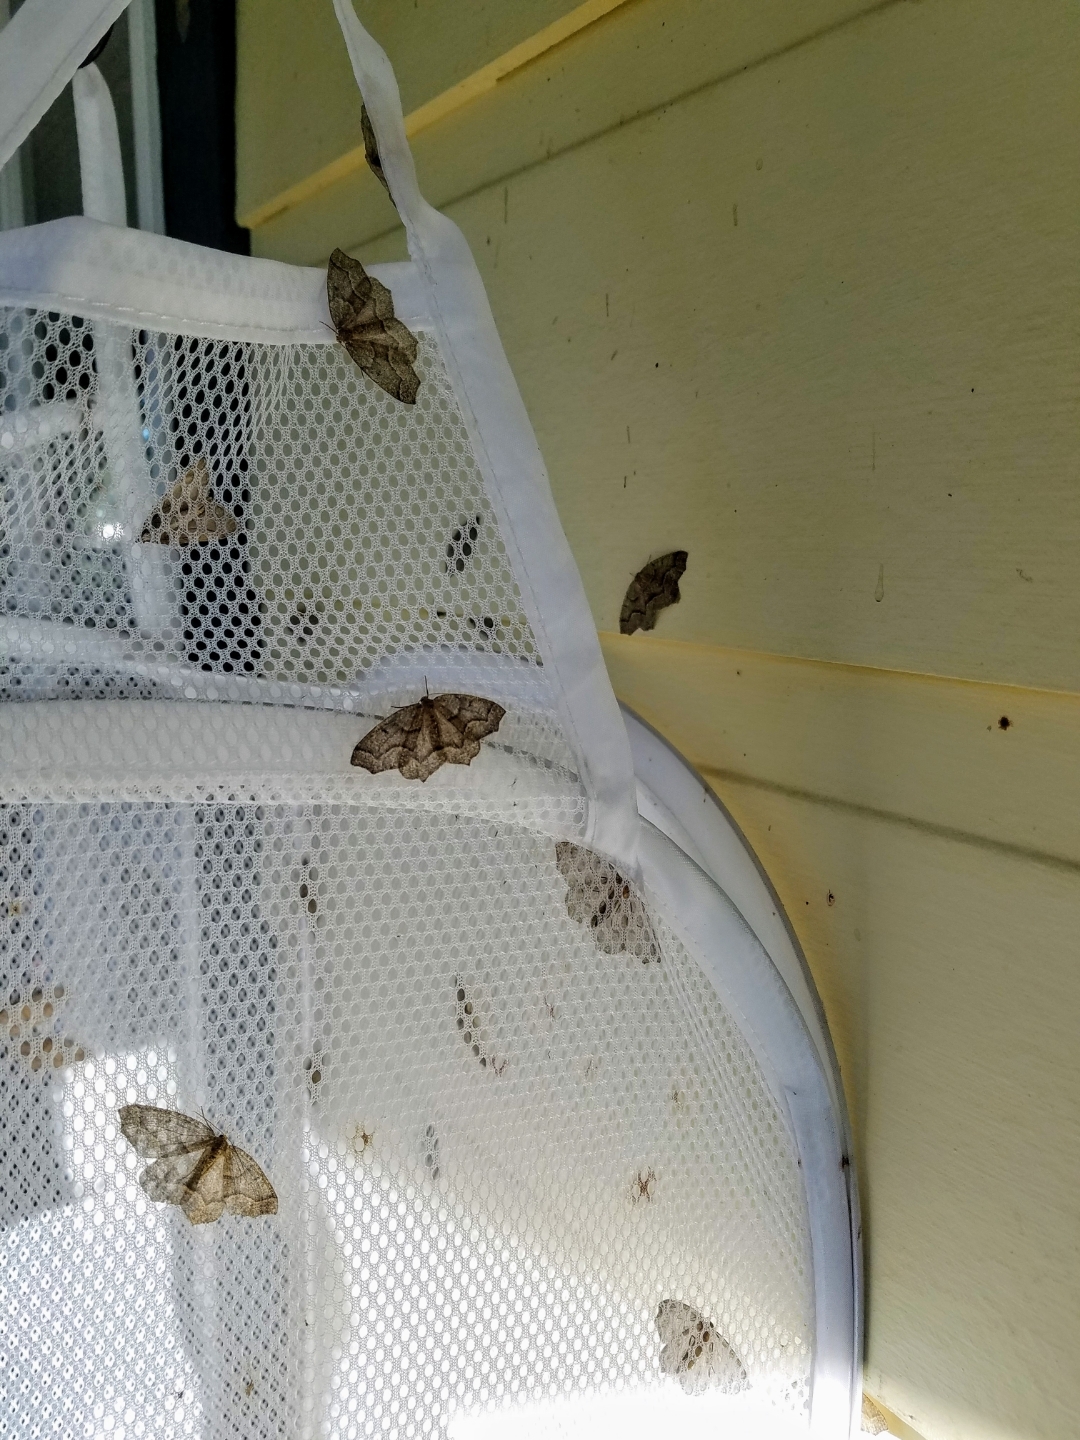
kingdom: Animalia
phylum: Arthropoda
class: Insecta
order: Lepidoptera
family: Geometridae
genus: Lambdina
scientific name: Lambdina fiscellaria
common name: Hemlock looper
